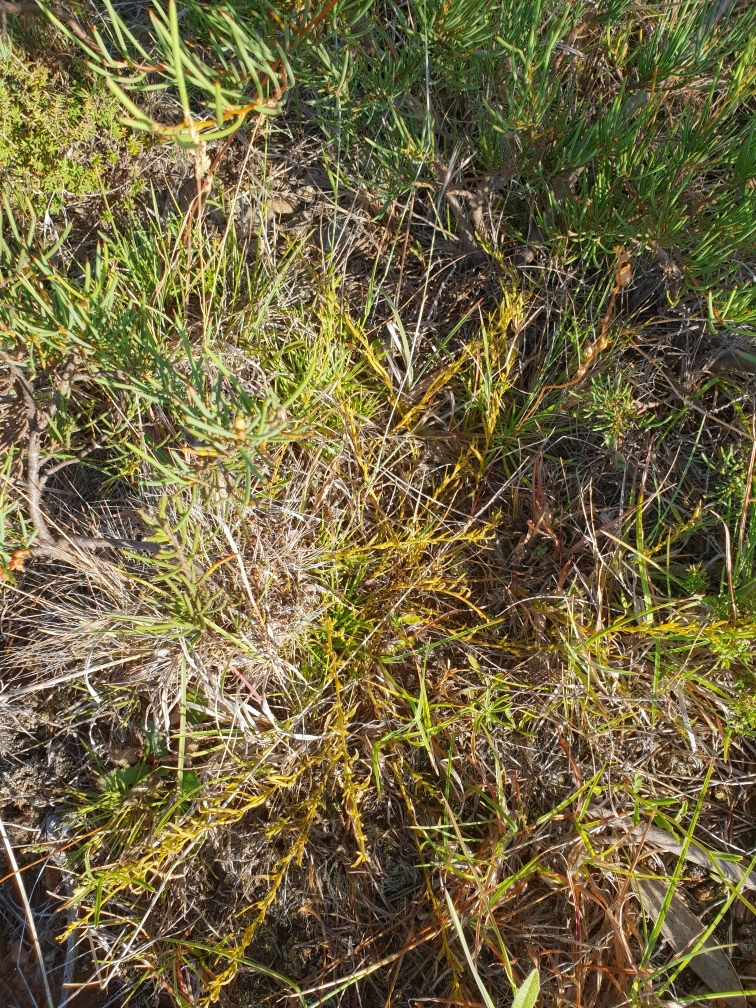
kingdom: Plantae
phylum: Tracheophyta
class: Magnoliopsida
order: Santalales
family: Thesiaceae
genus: Thesium
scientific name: Thesium australe
